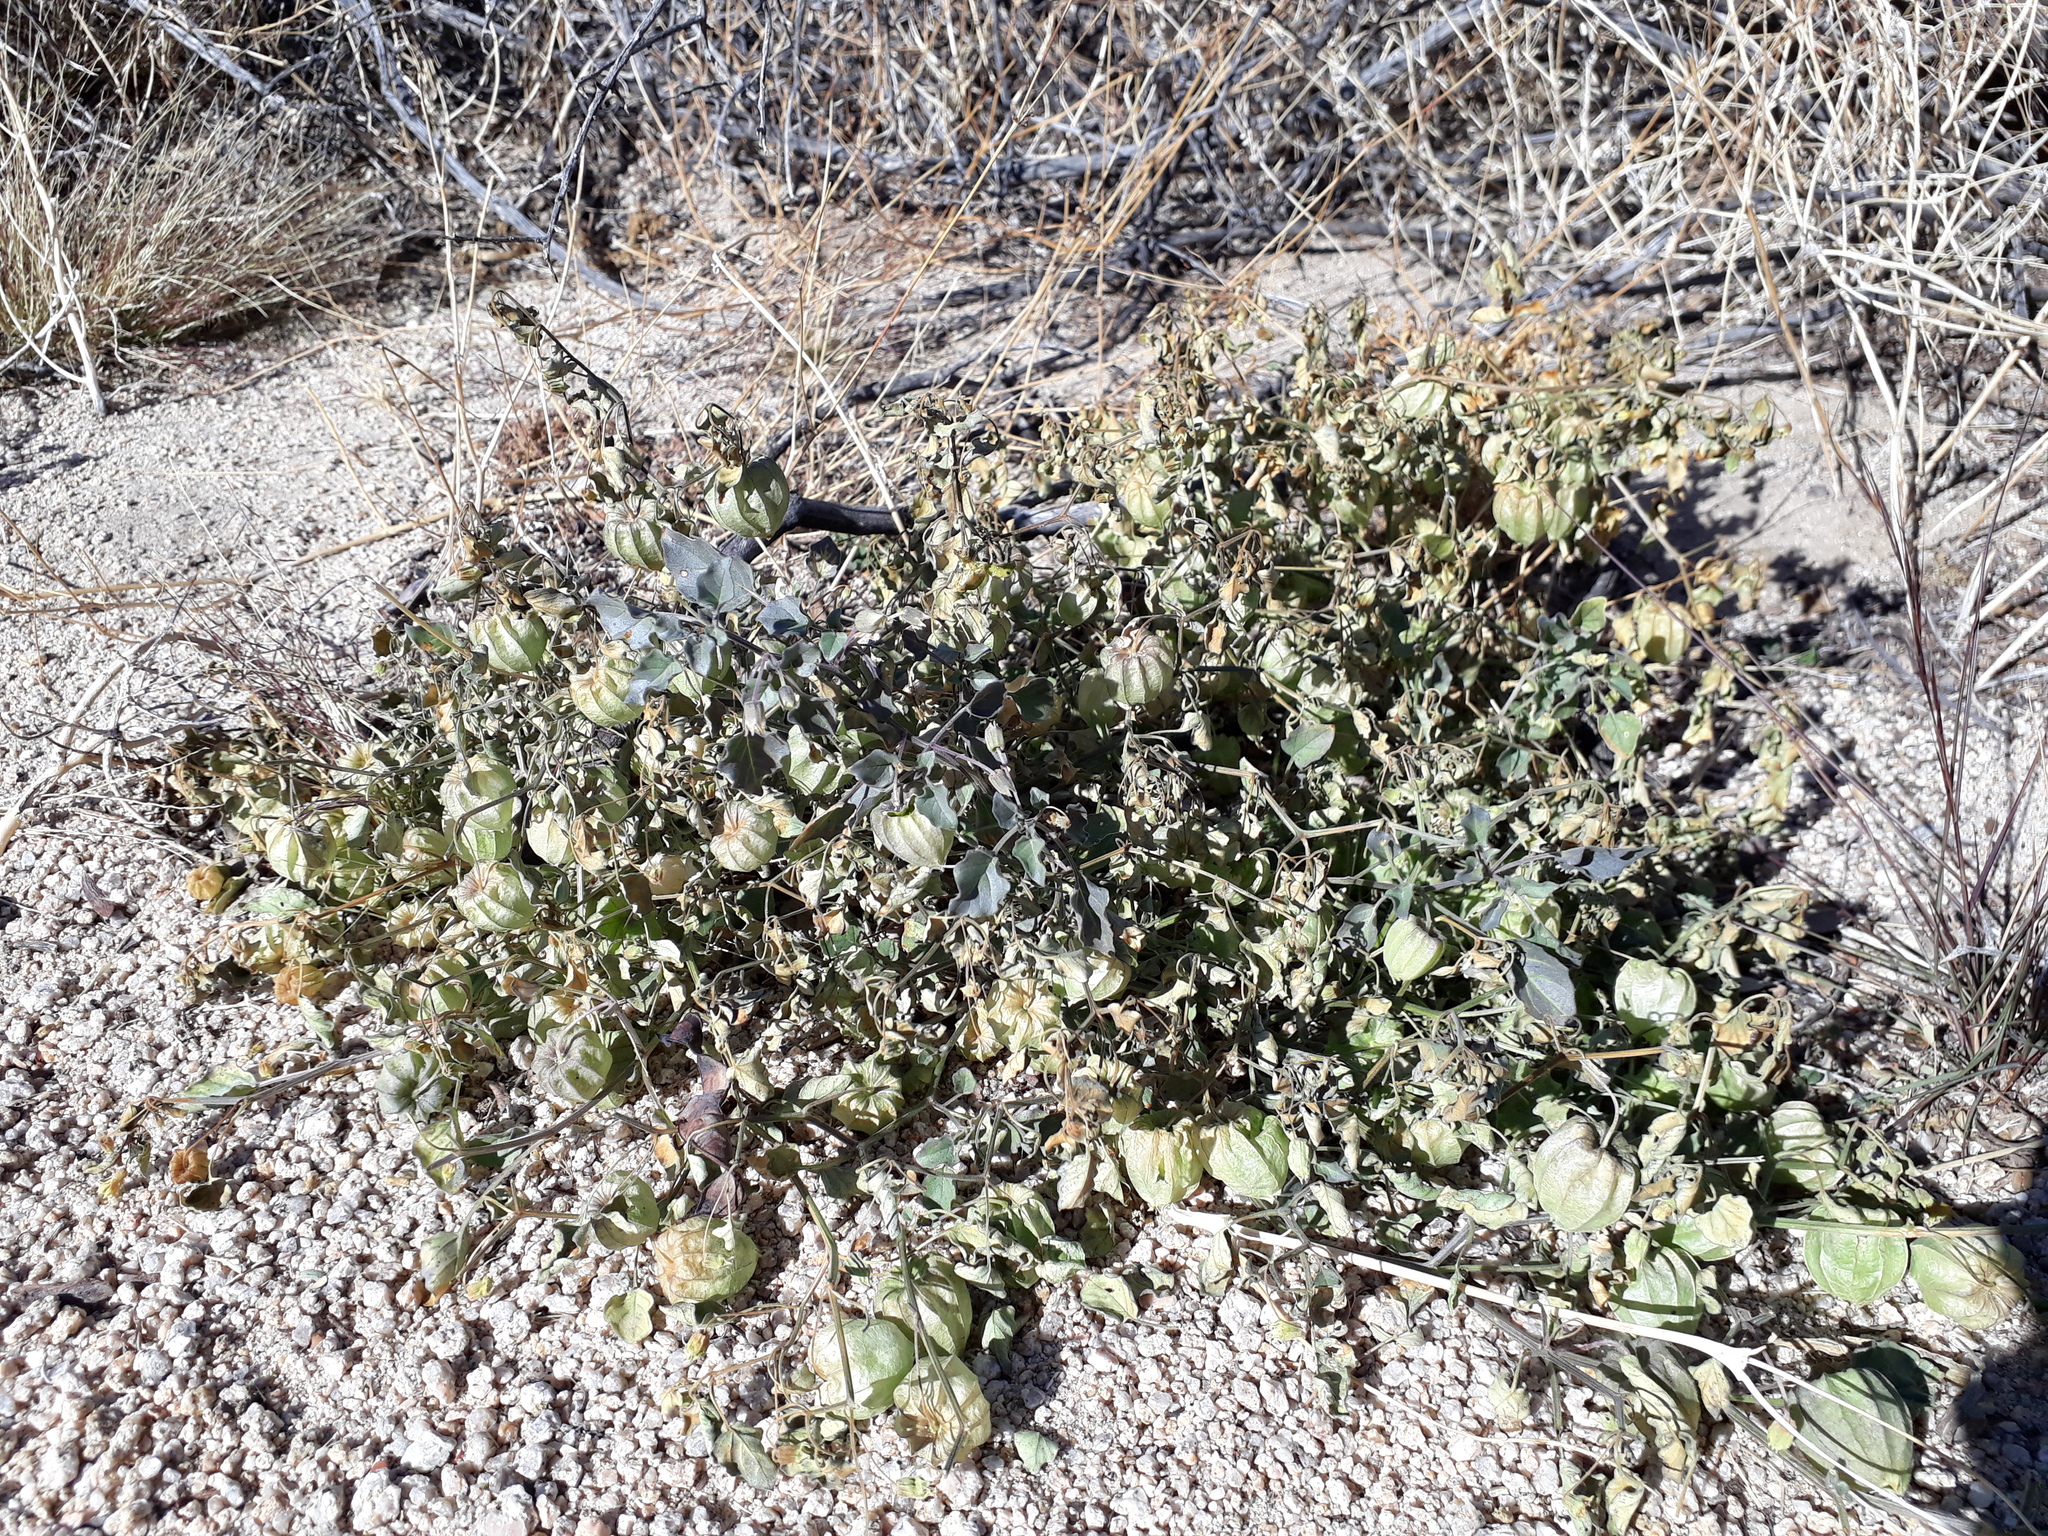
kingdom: Plantae
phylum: Tracheophyta
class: Magnoliopsida
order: Solanales
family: Solanaceae
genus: Physalis
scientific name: Physalis crassifolia
